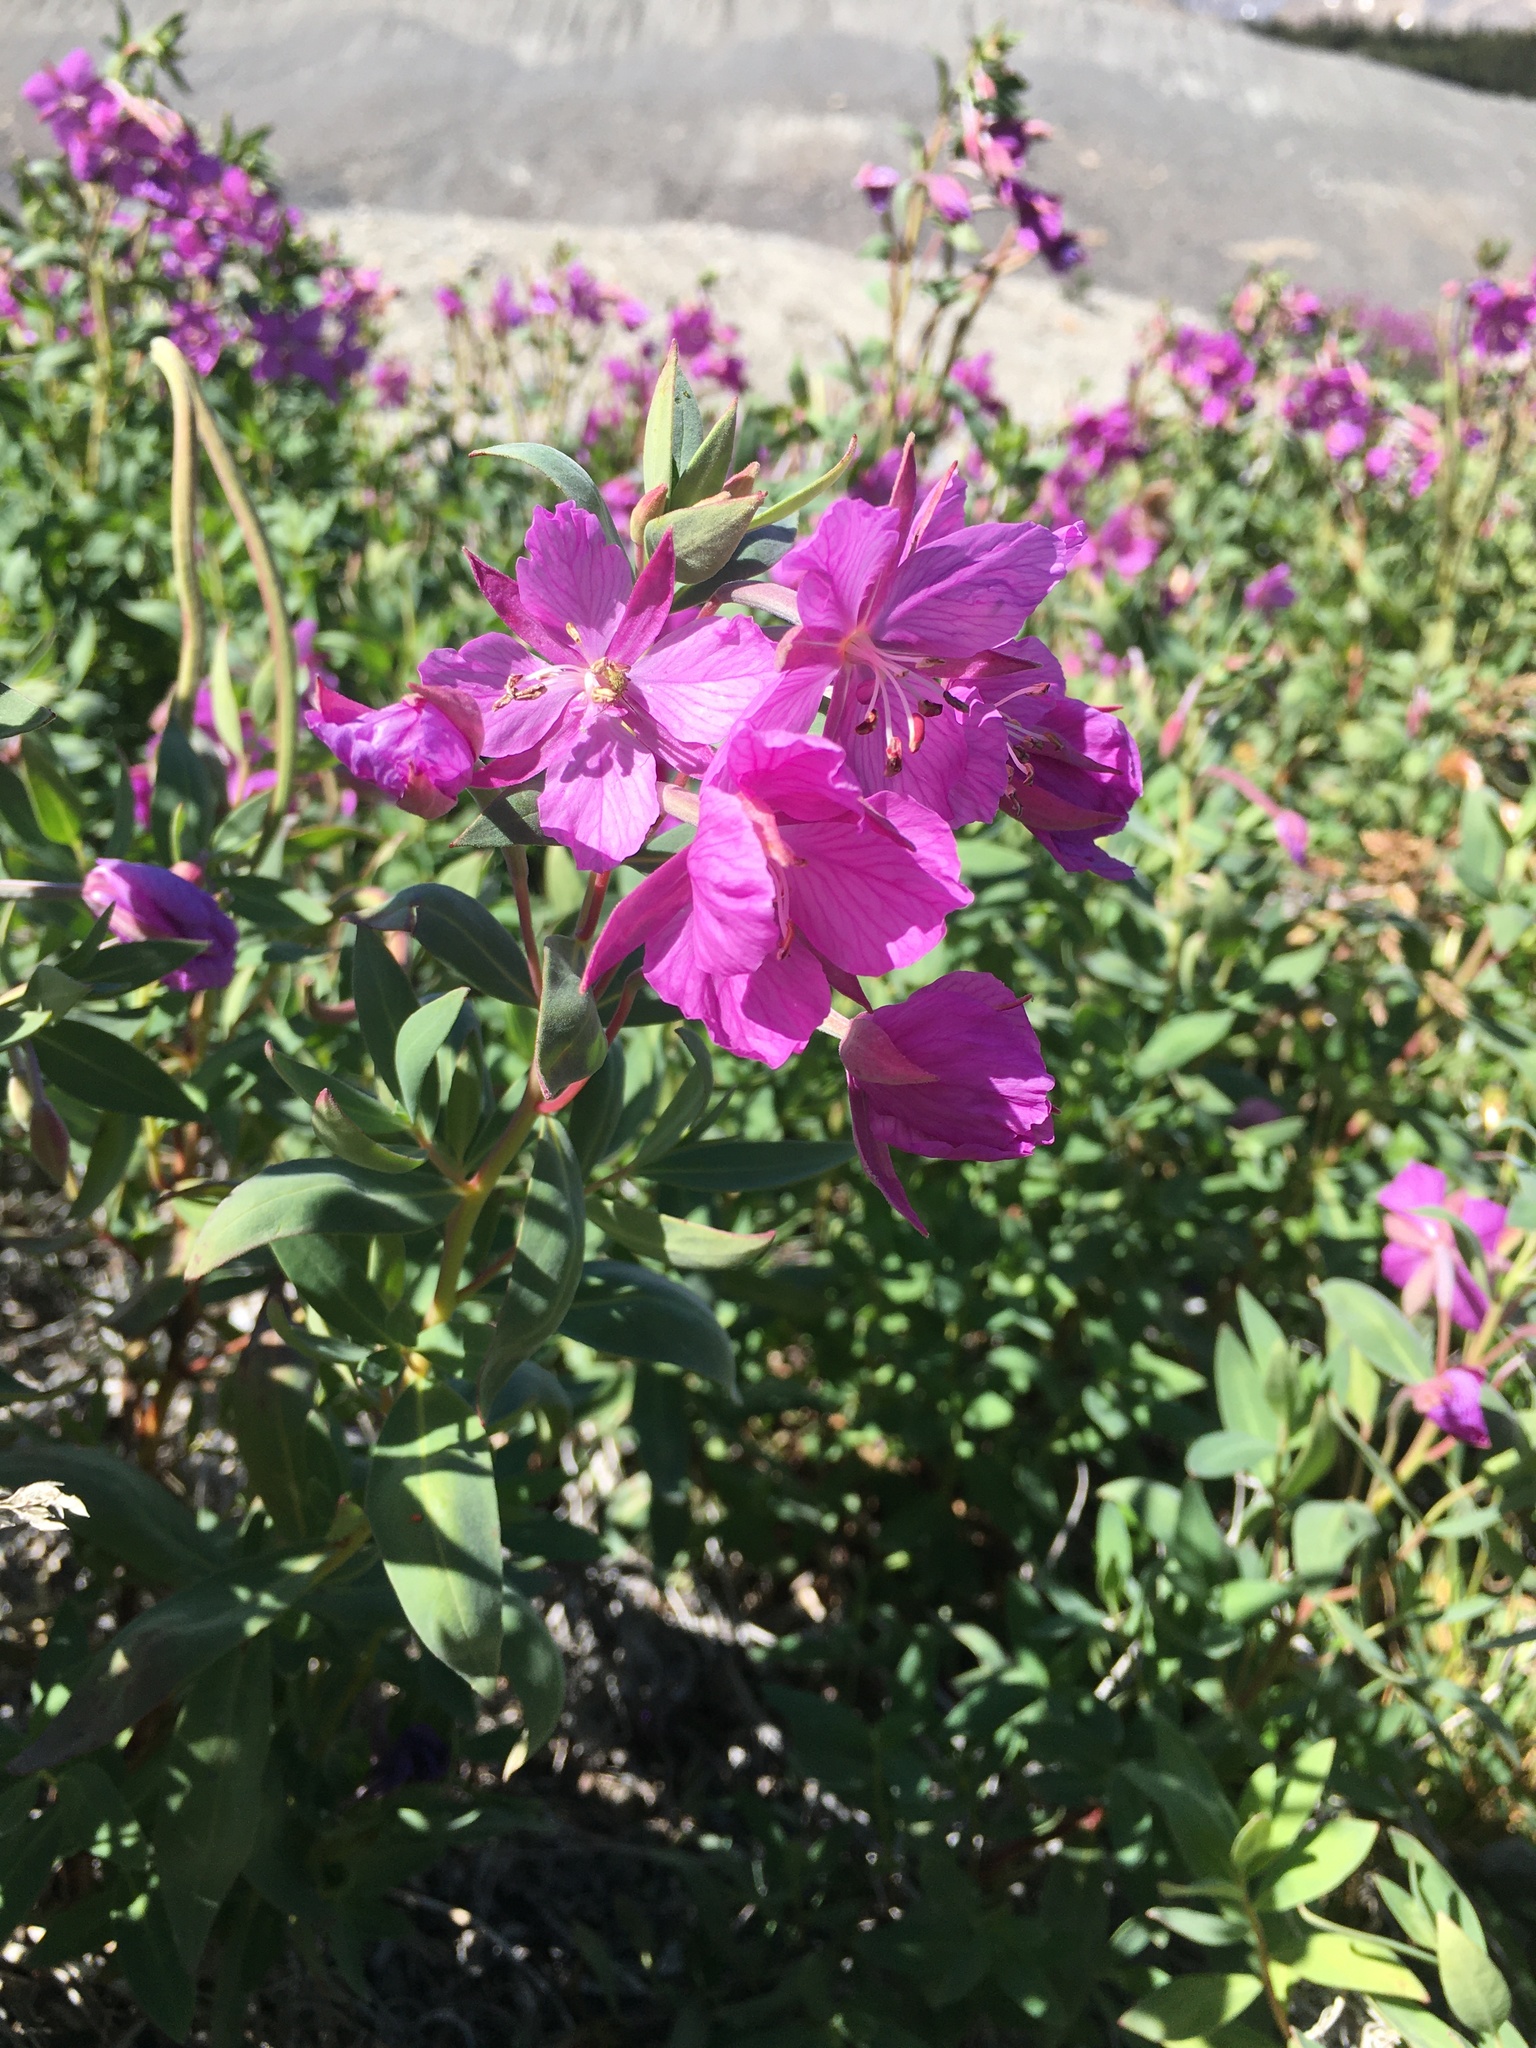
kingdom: Plantae
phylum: Tracheophyta
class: Magnoliopsida
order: Myrtales
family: Onagraceae
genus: Chamaenerion
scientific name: Chamaenerion latifolium
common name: Dwarf fireweed
